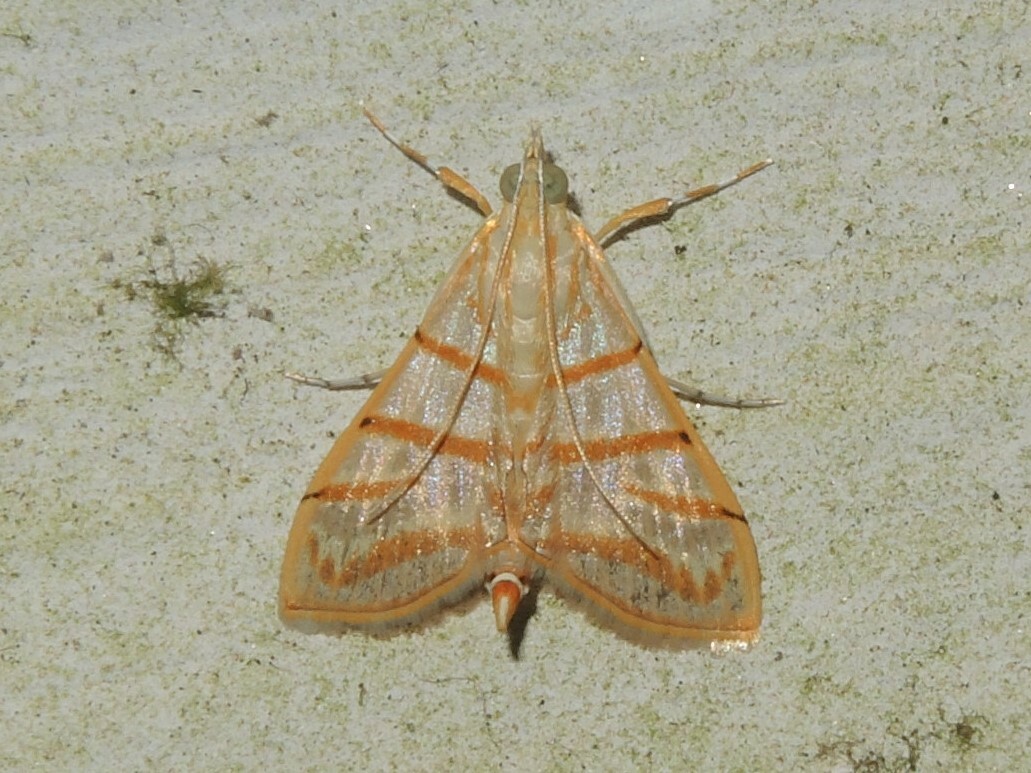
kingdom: Animalia
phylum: Arthropoda
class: Insecta
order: Lepidoptera
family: Crambidae
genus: Pagyda
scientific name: Pagyda salvalis
